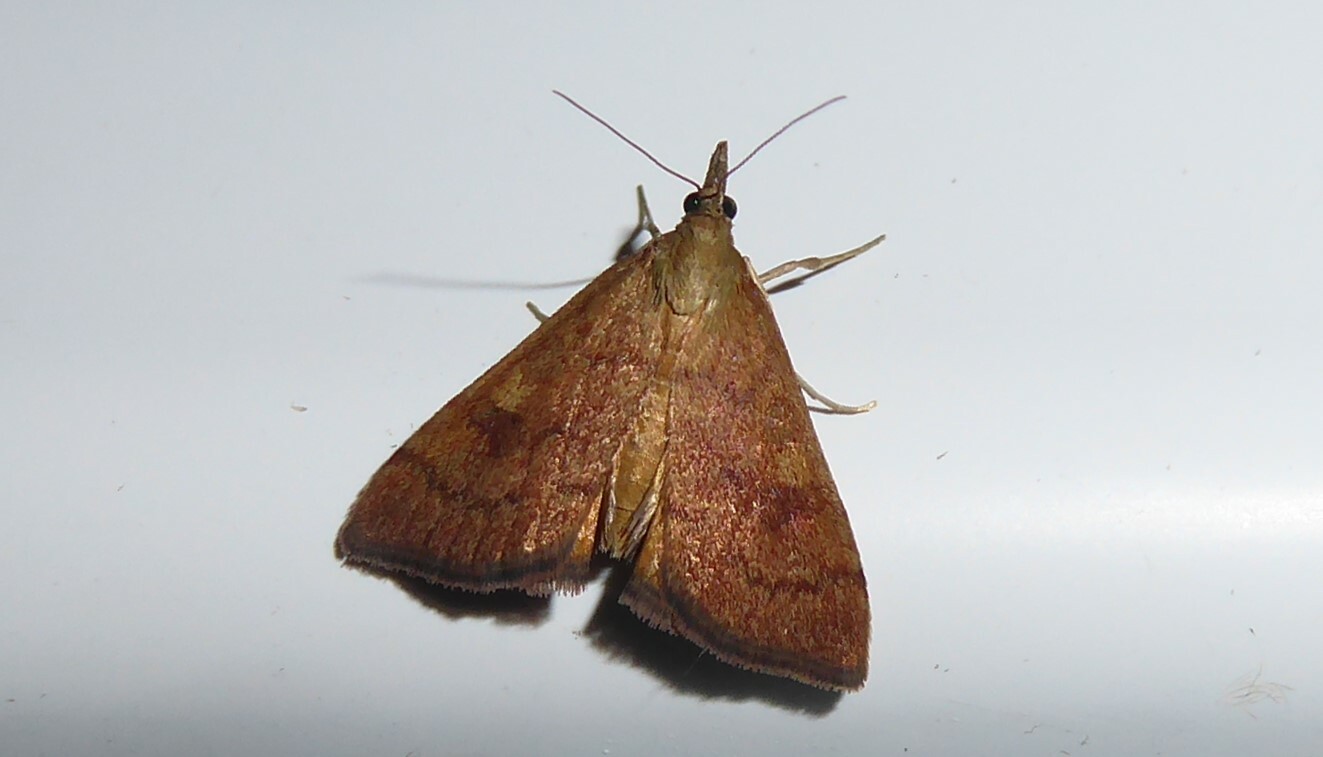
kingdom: Animalia
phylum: Arthropoda
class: Insecta
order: Lepidoptera
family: Crambidae
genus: Udea
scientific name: Udea Mnesictena flavidalis
